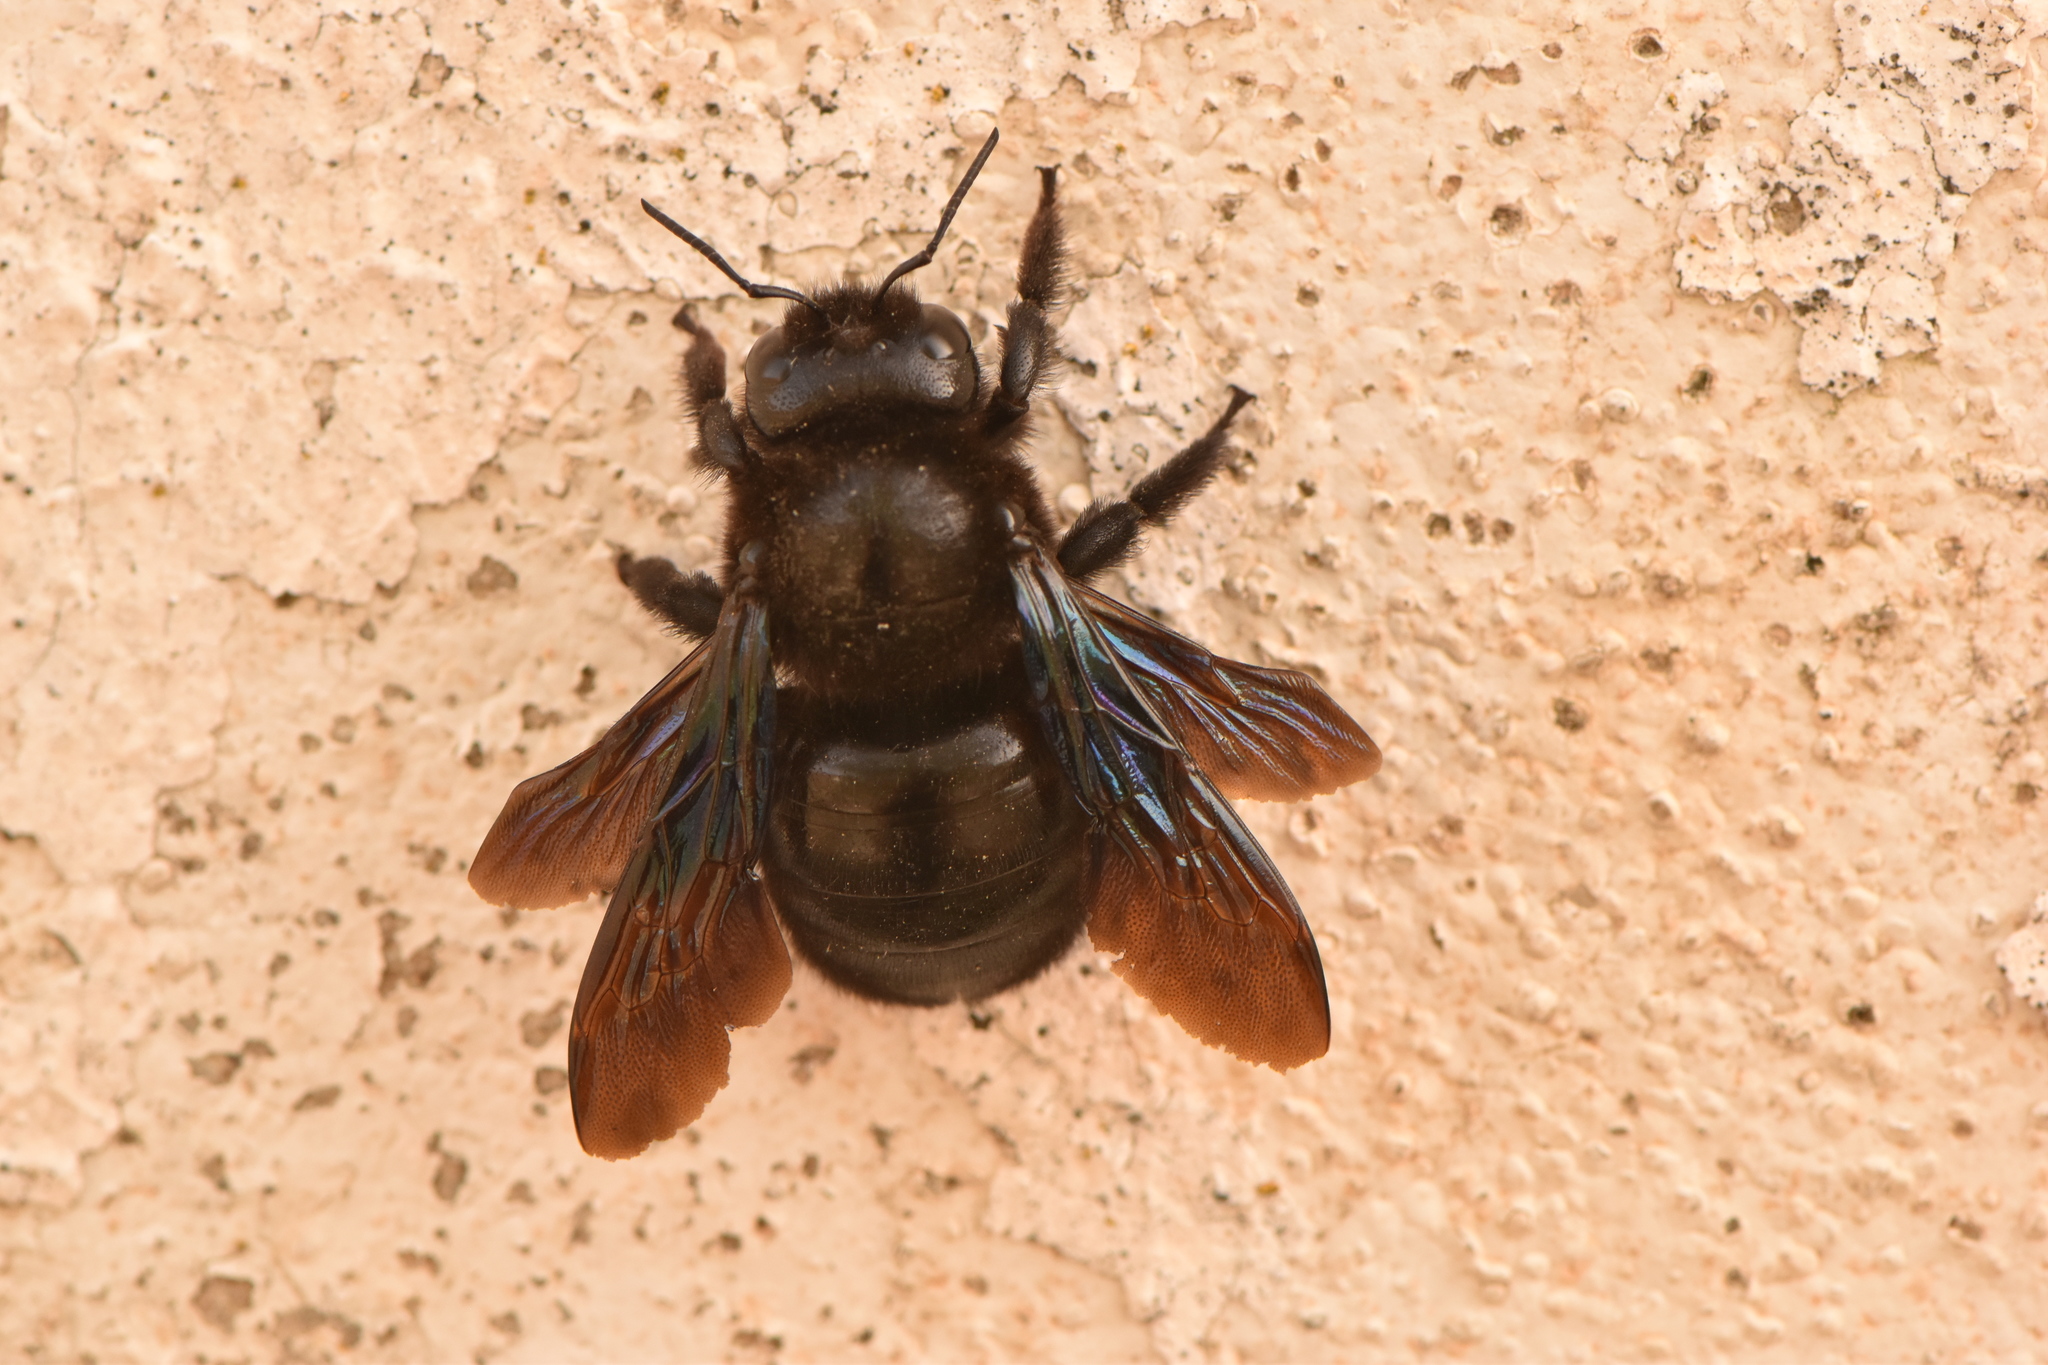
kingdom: Animalia
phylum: Arthropoda
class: Insecta
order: Hymenoptera
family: Apidae
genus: Xylocopa
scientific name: Xylocopa violacea
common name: Violet carpenter bee
